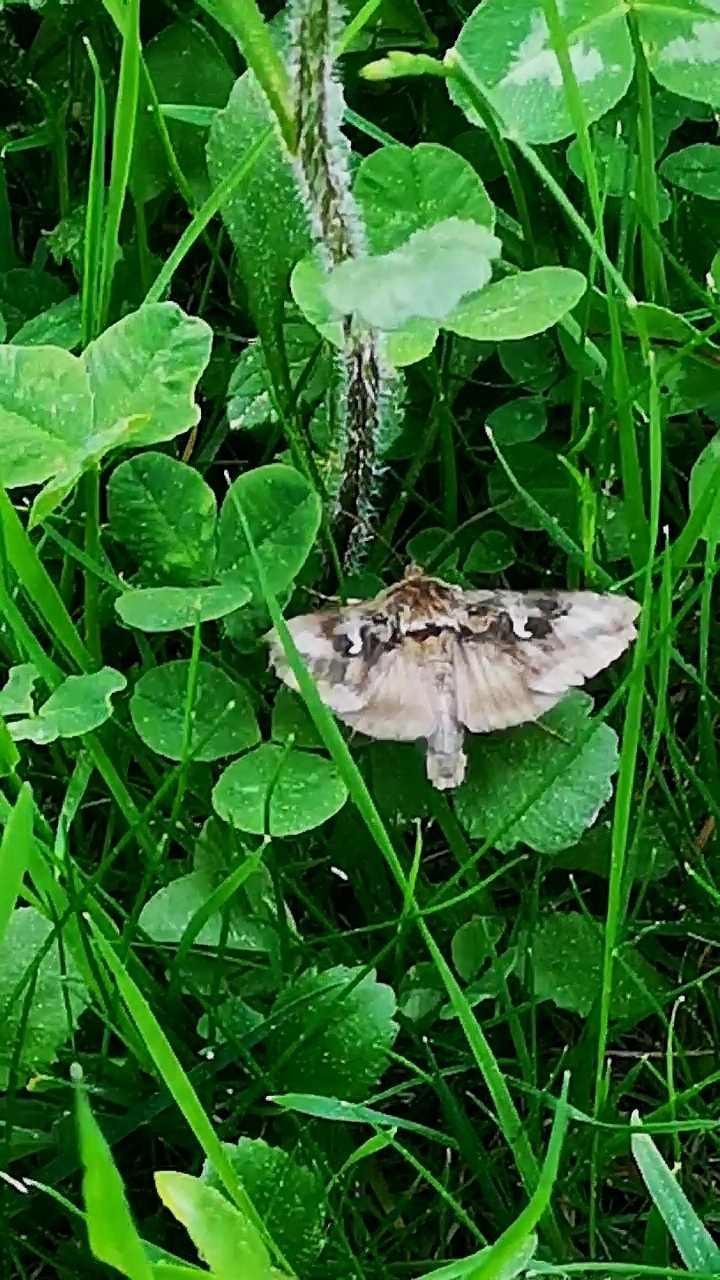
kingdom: Animalia
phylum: Arthropoda
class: Insecta
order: Lepidoptera
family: Noctuidae
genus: Autographa
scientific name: Autographa gamma
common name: Silver y
